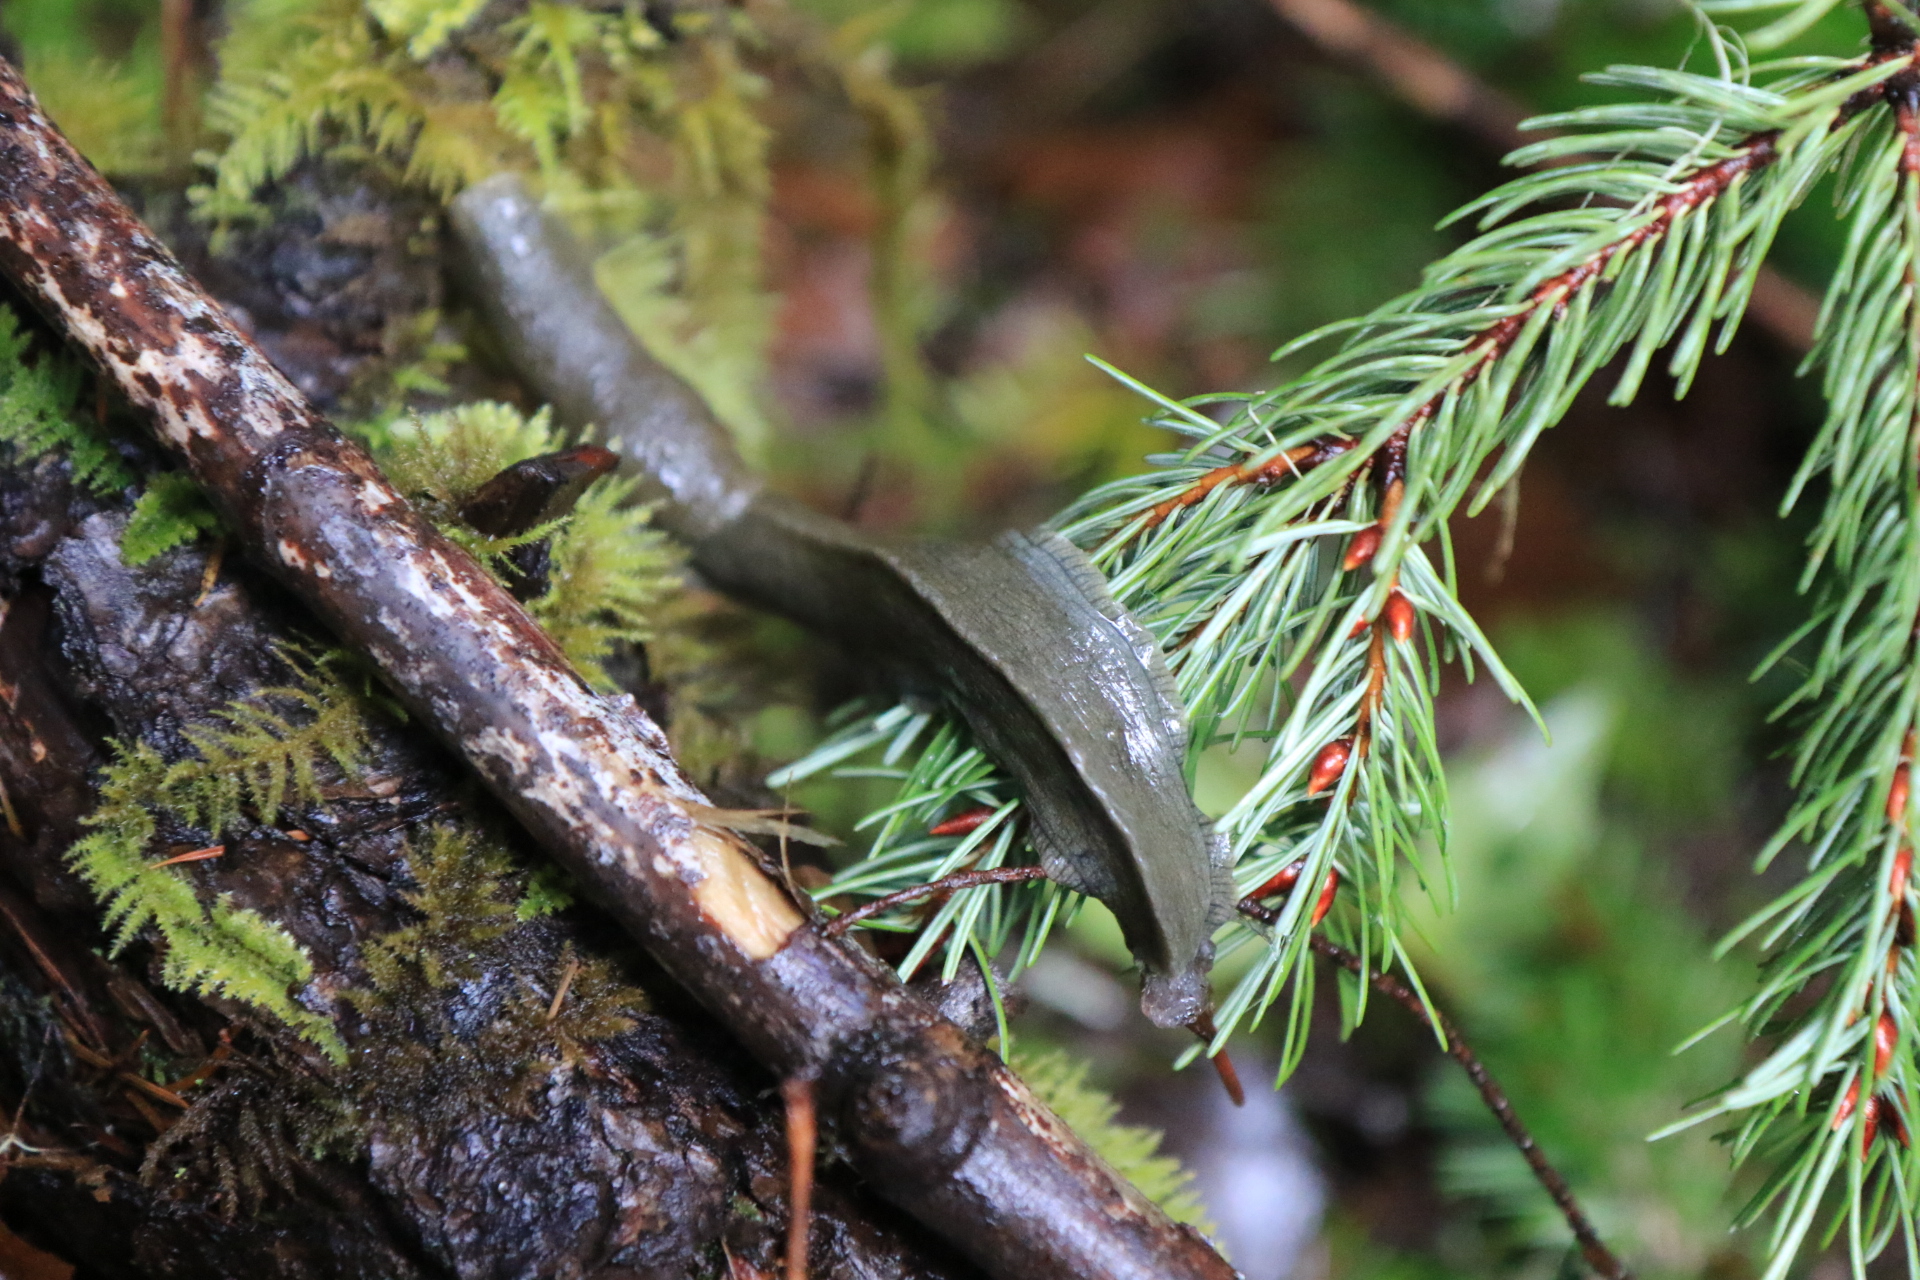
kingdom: Animalia
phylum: Mollusca
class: Gastropoda
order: Stylommatophora
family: Ariolimacidae
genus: Ariolimax
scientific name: Ariolimax columbianus
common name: Pacific banana slug
